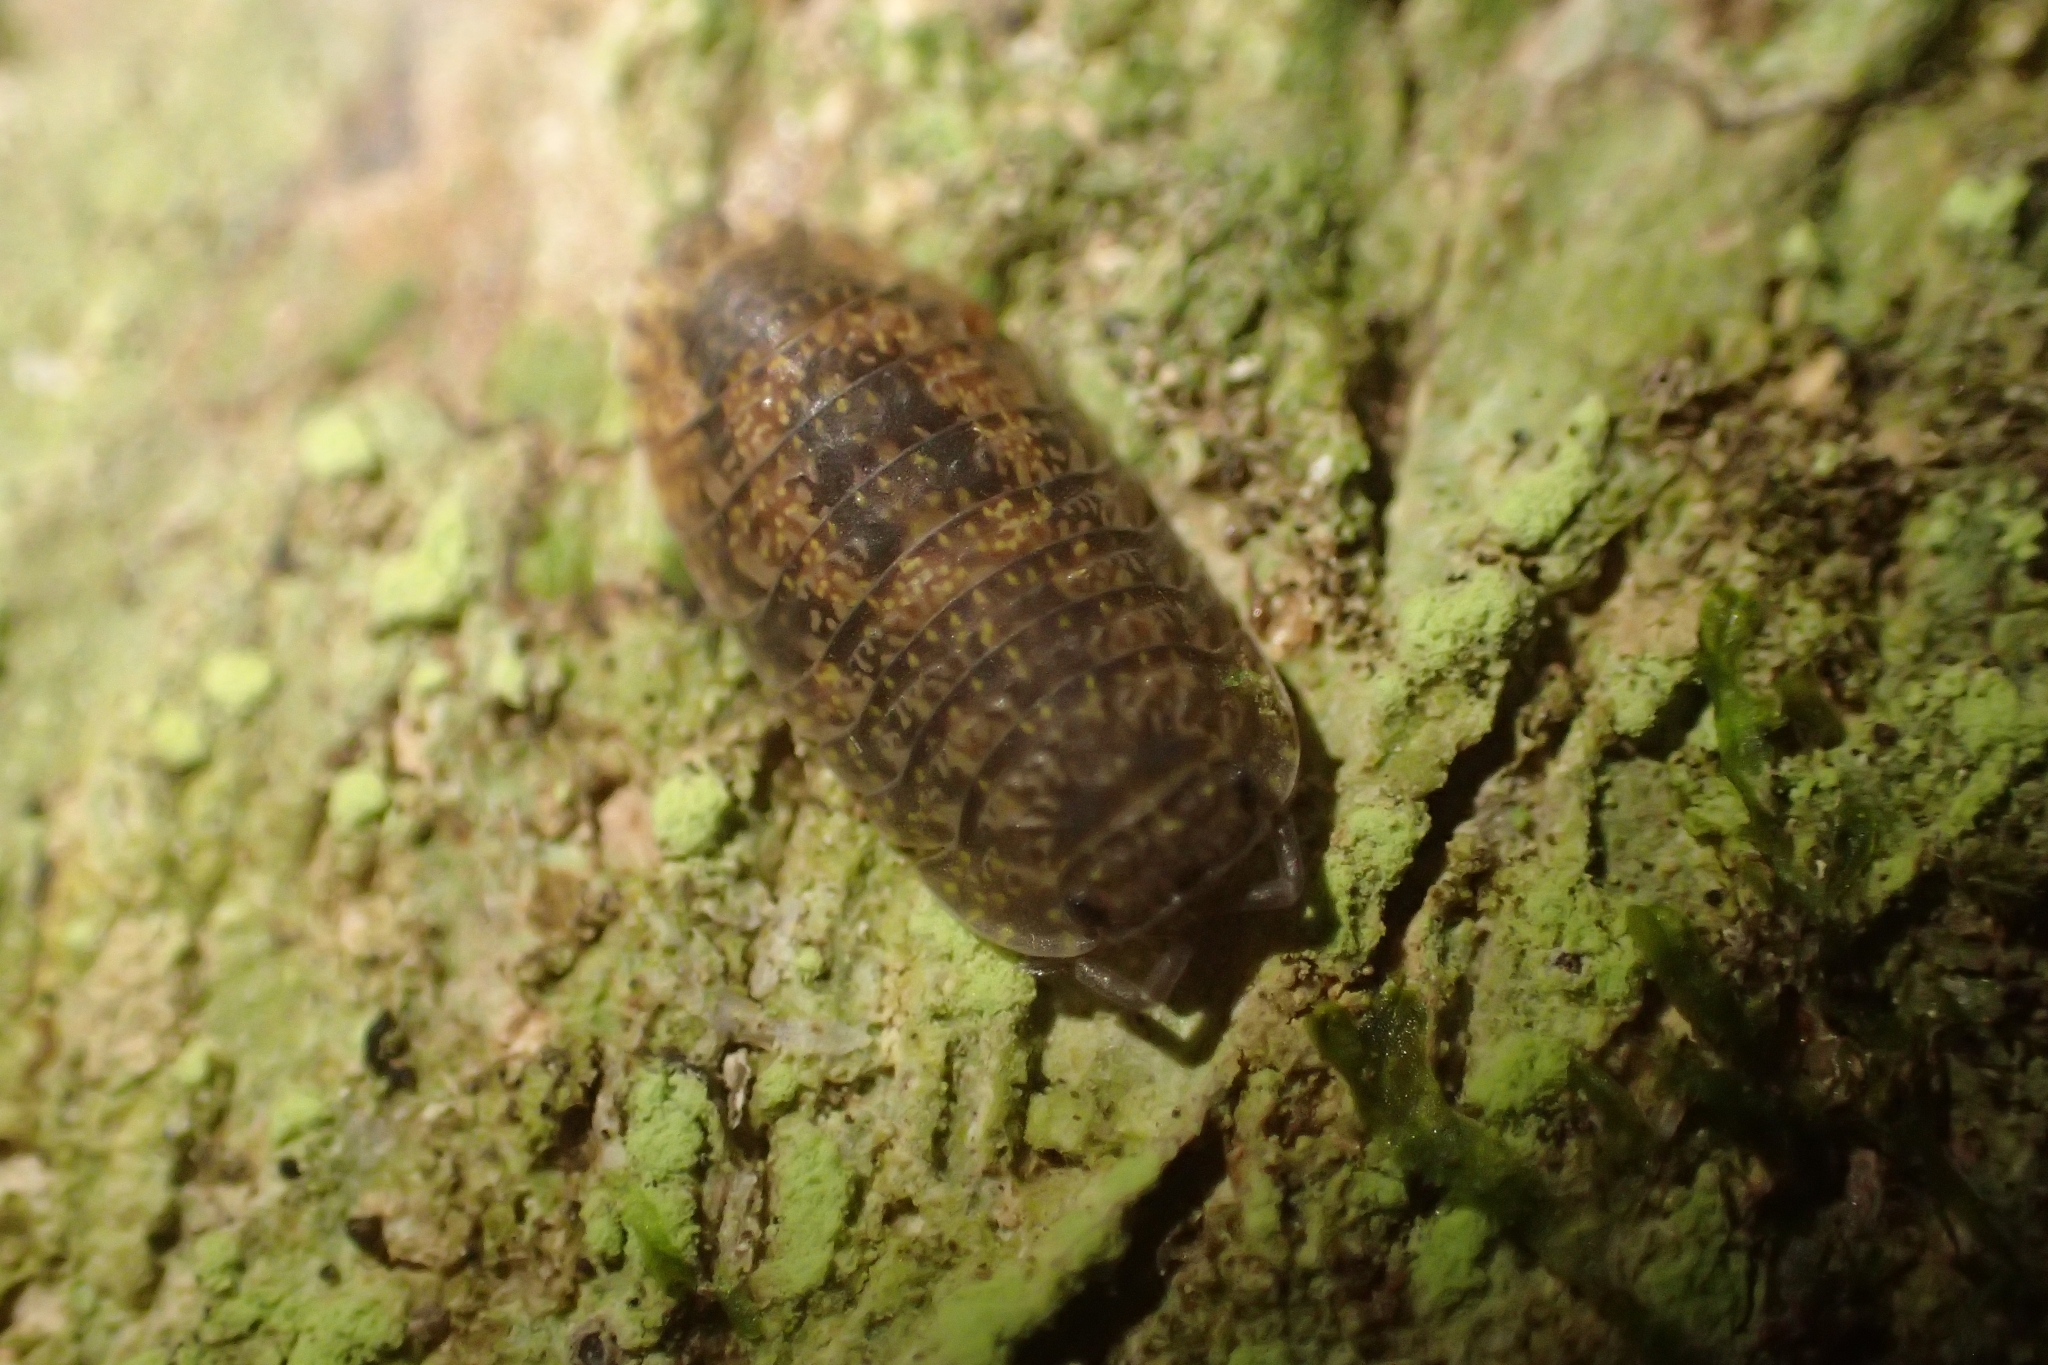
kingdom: Animalia
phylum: Arthropoda
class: Malacostraca
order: Isopoda
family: Armadillidae
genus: Cubaris
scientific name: Cubaris tarangensis
